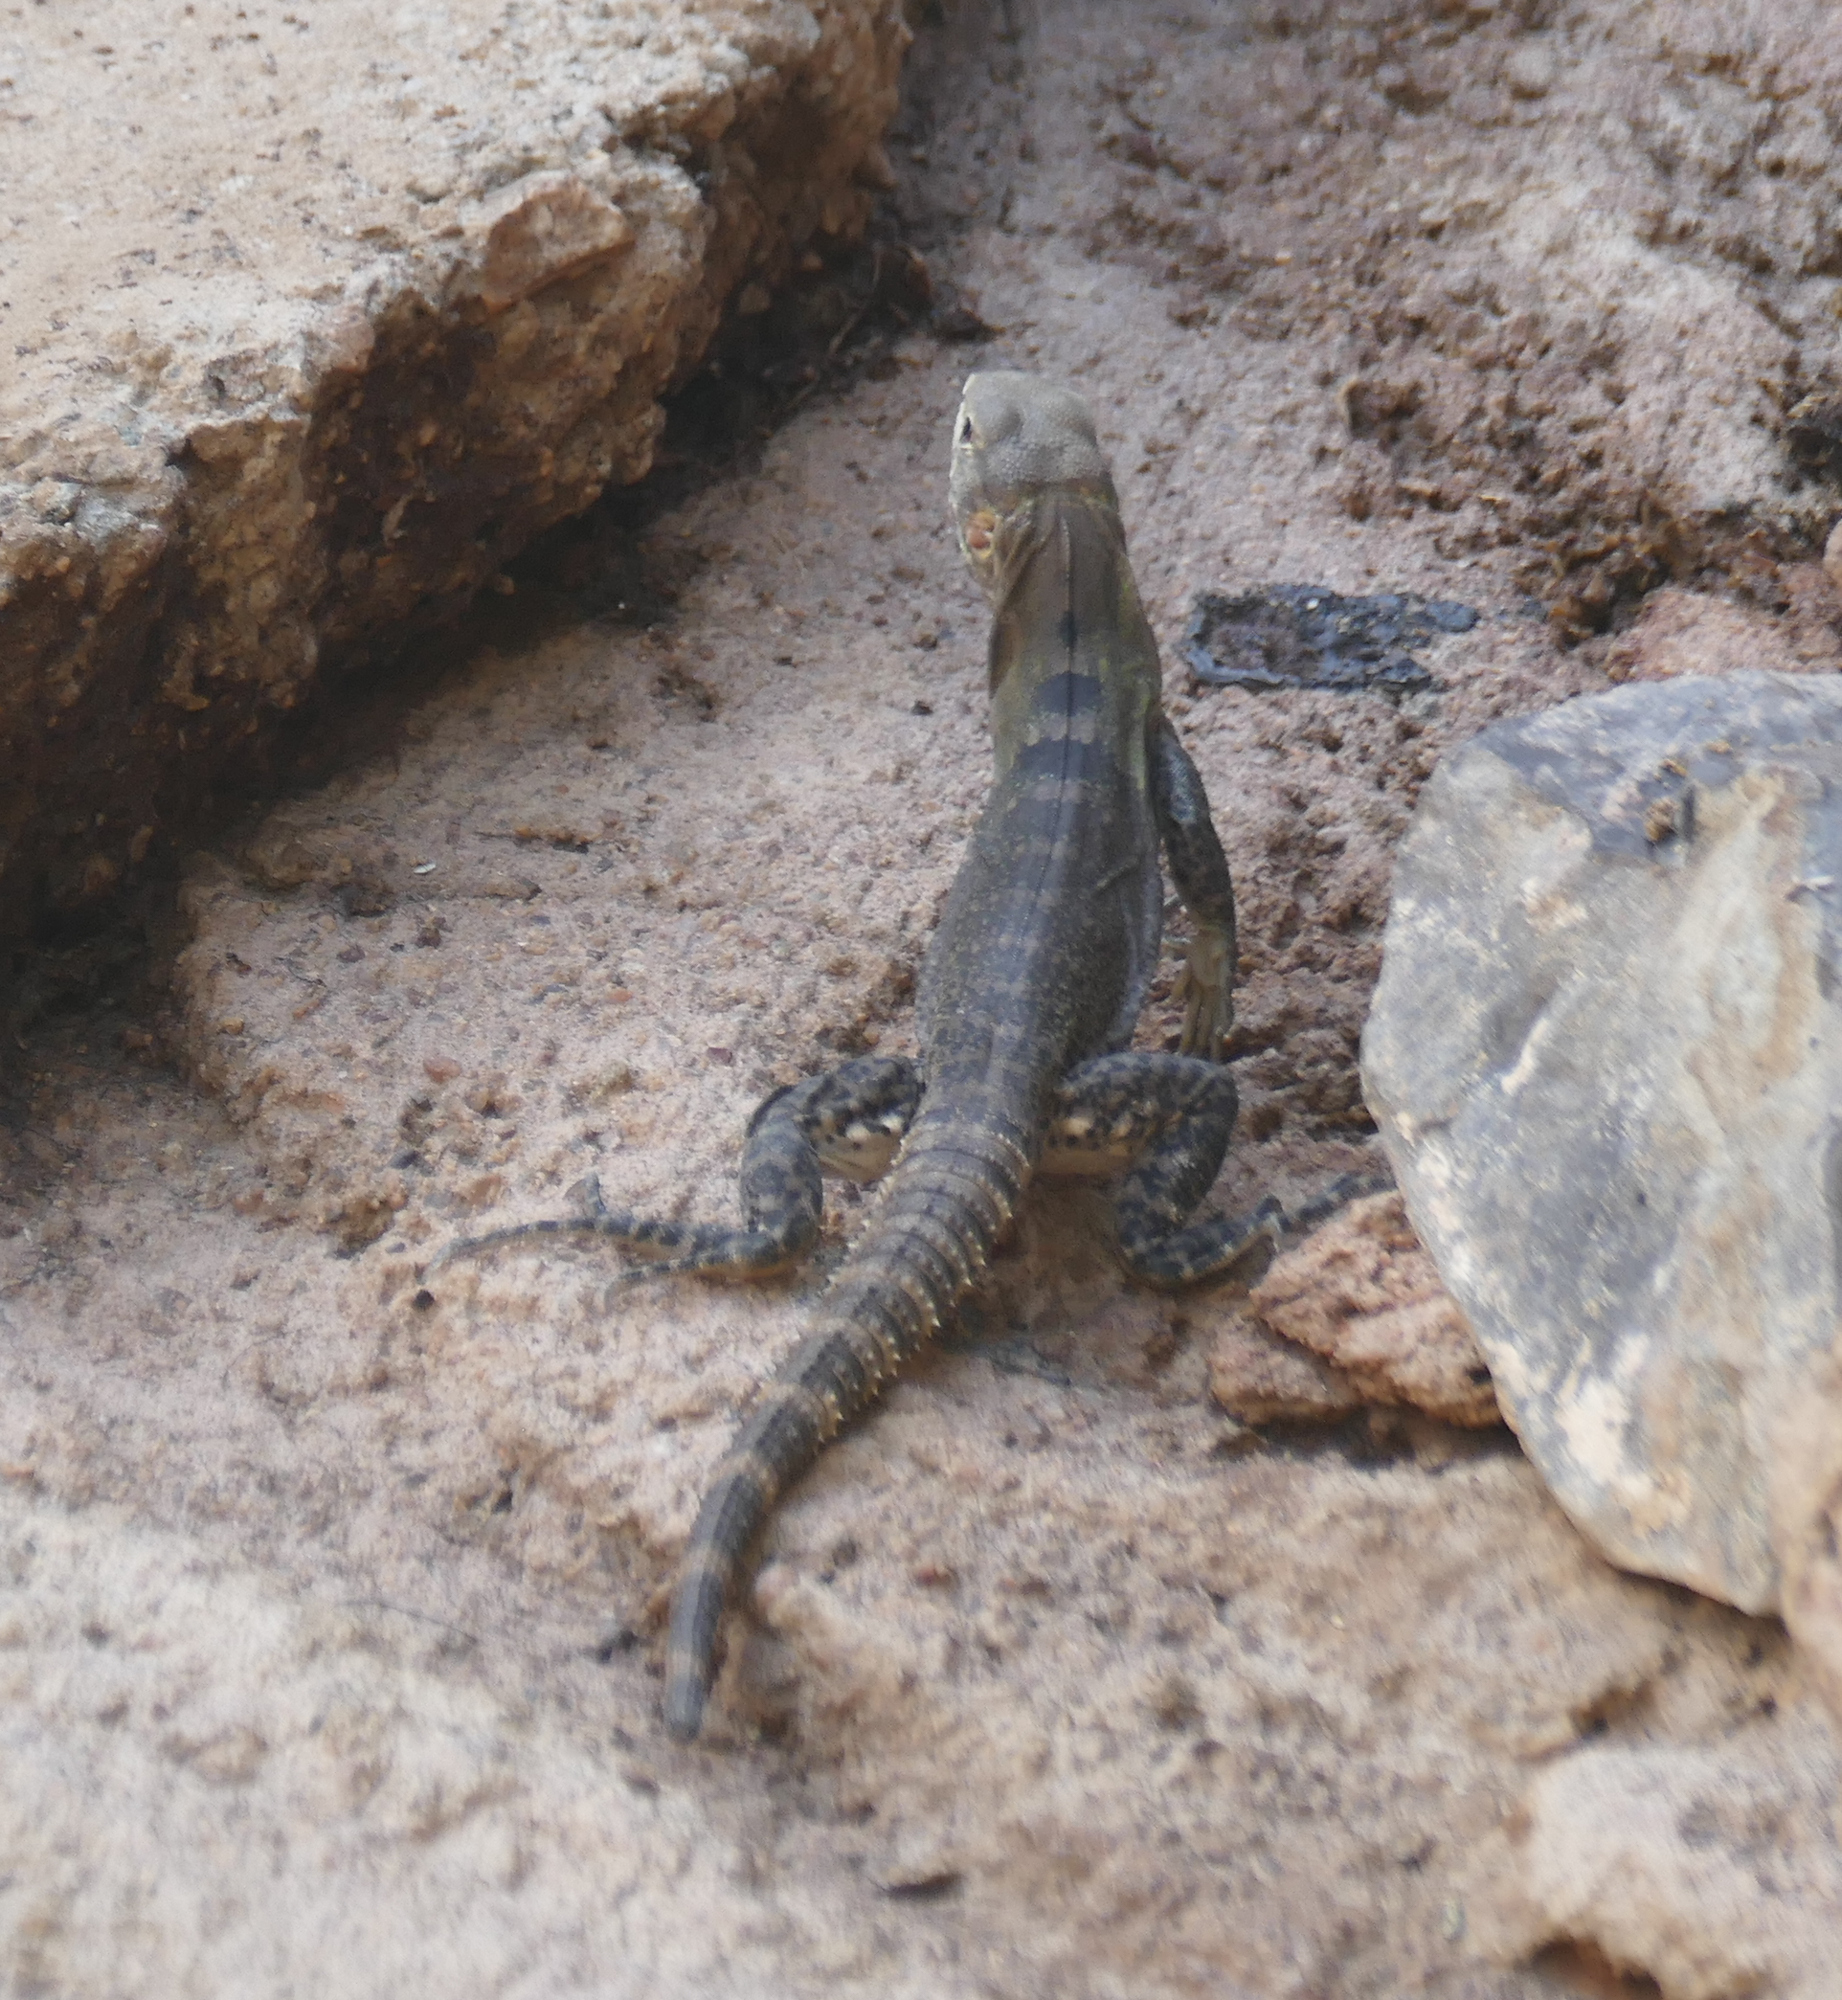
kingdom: Animalia
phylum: Chordata
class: Squamata
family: Iguanidae
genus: Ctenosaura
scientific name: Ctenosaura
